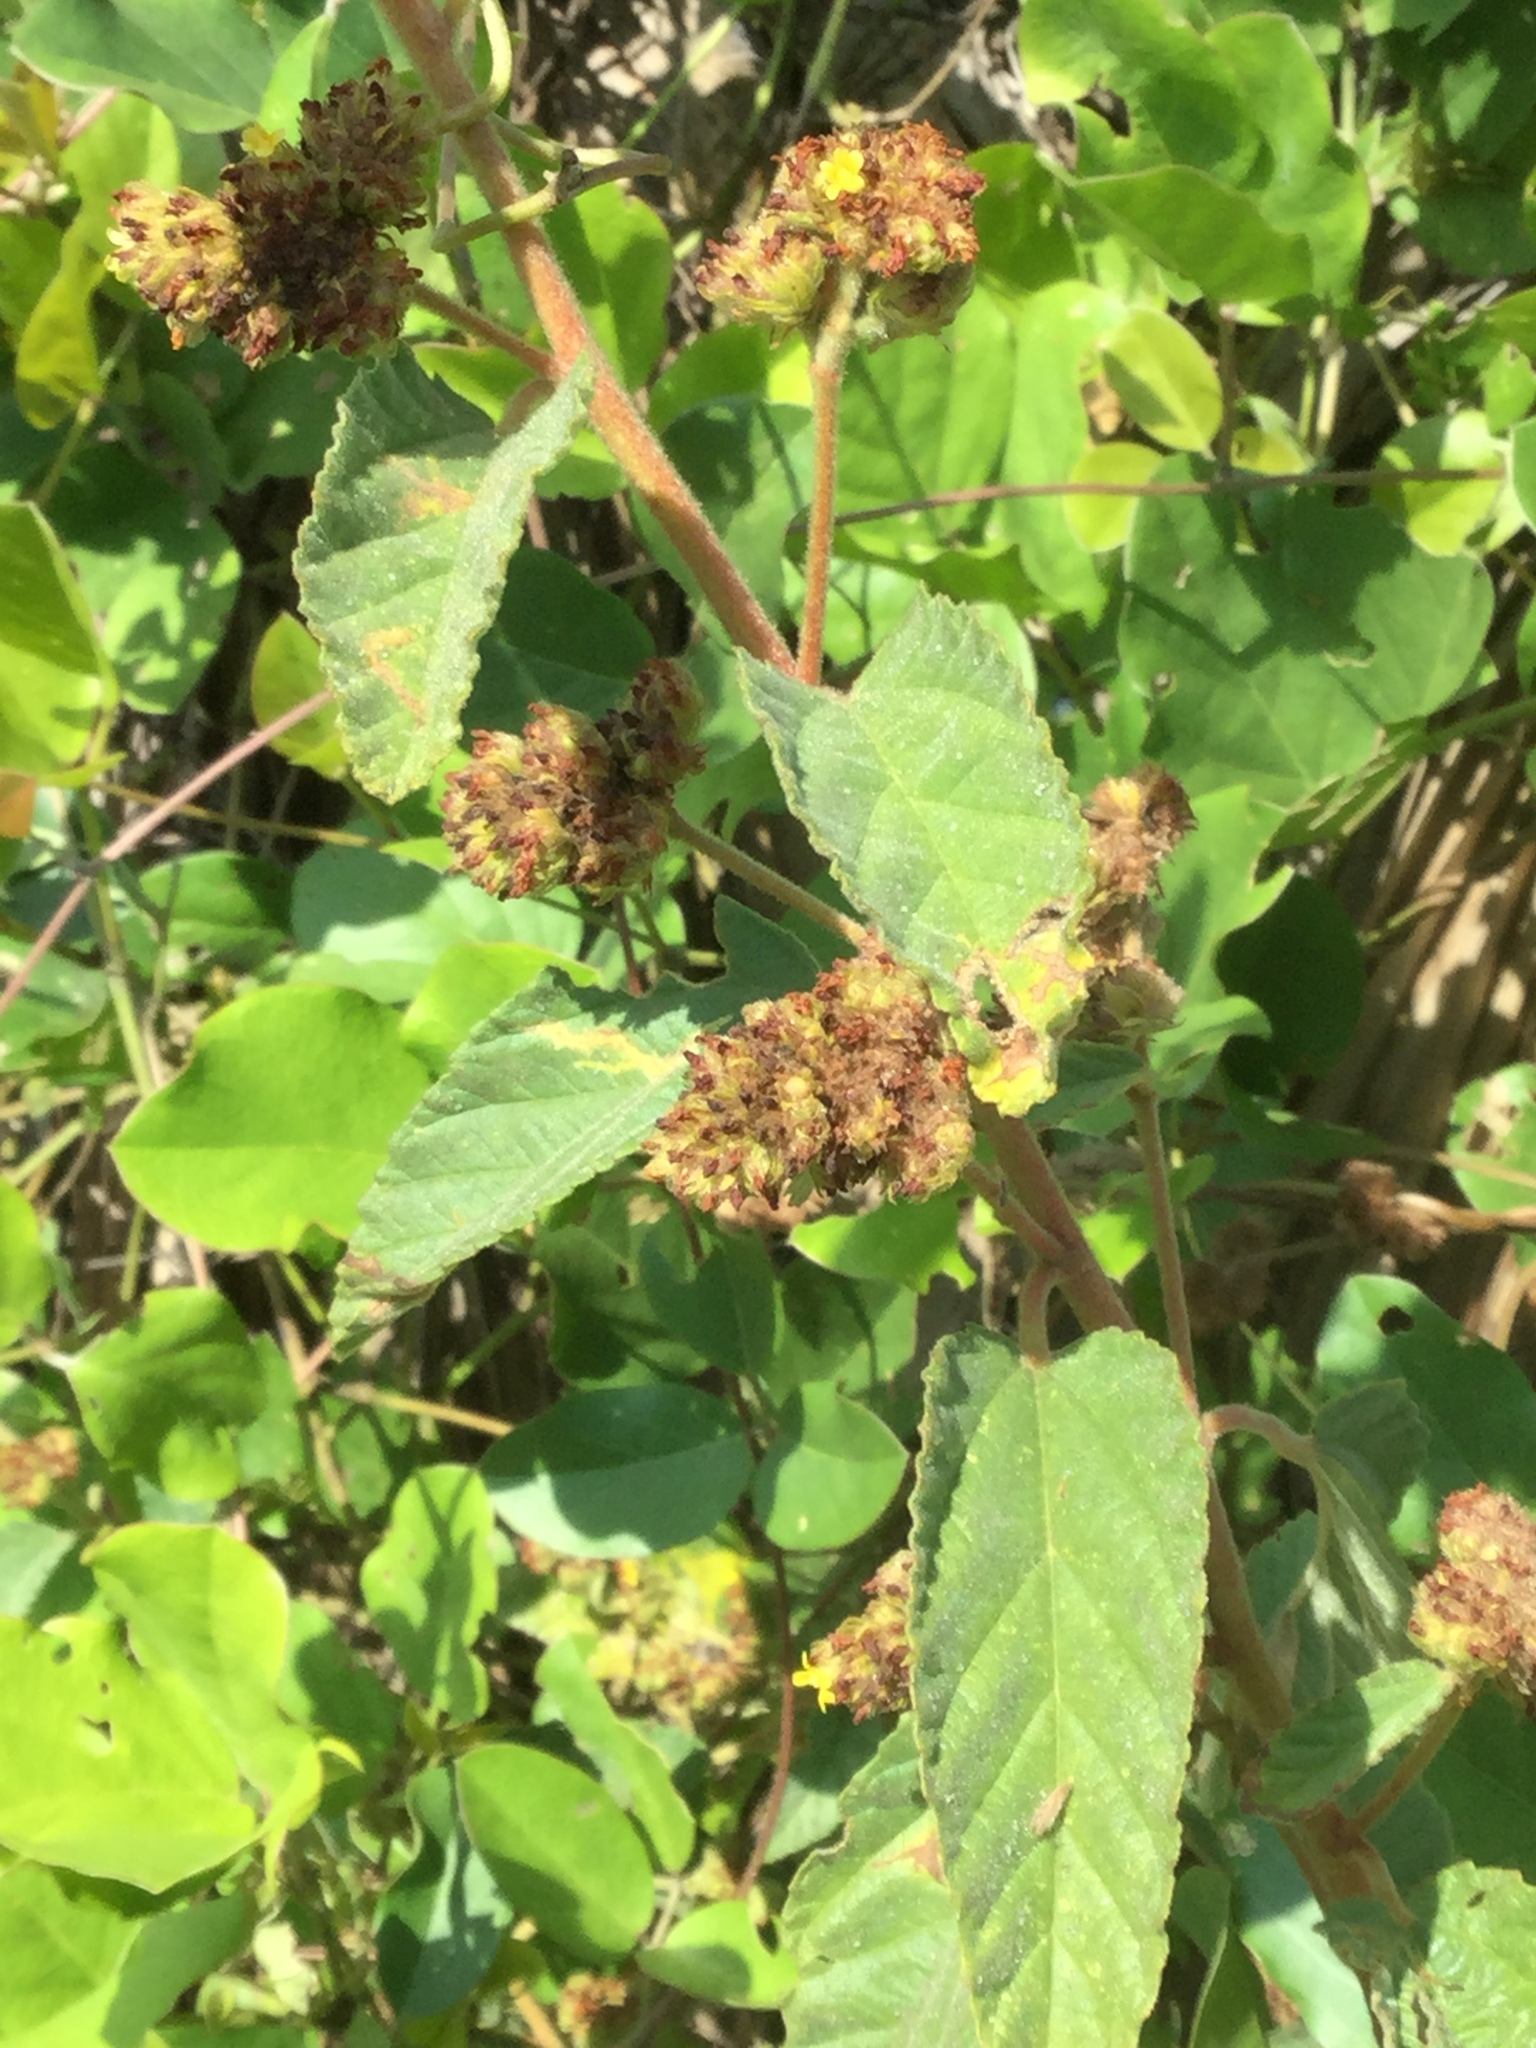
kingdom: Plantae
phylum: Tracheophyta
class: Magnoliopsida
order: Malvales
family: Malvaceae
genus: Waltheria
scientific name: Waltheria indica
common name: Leather-coat
